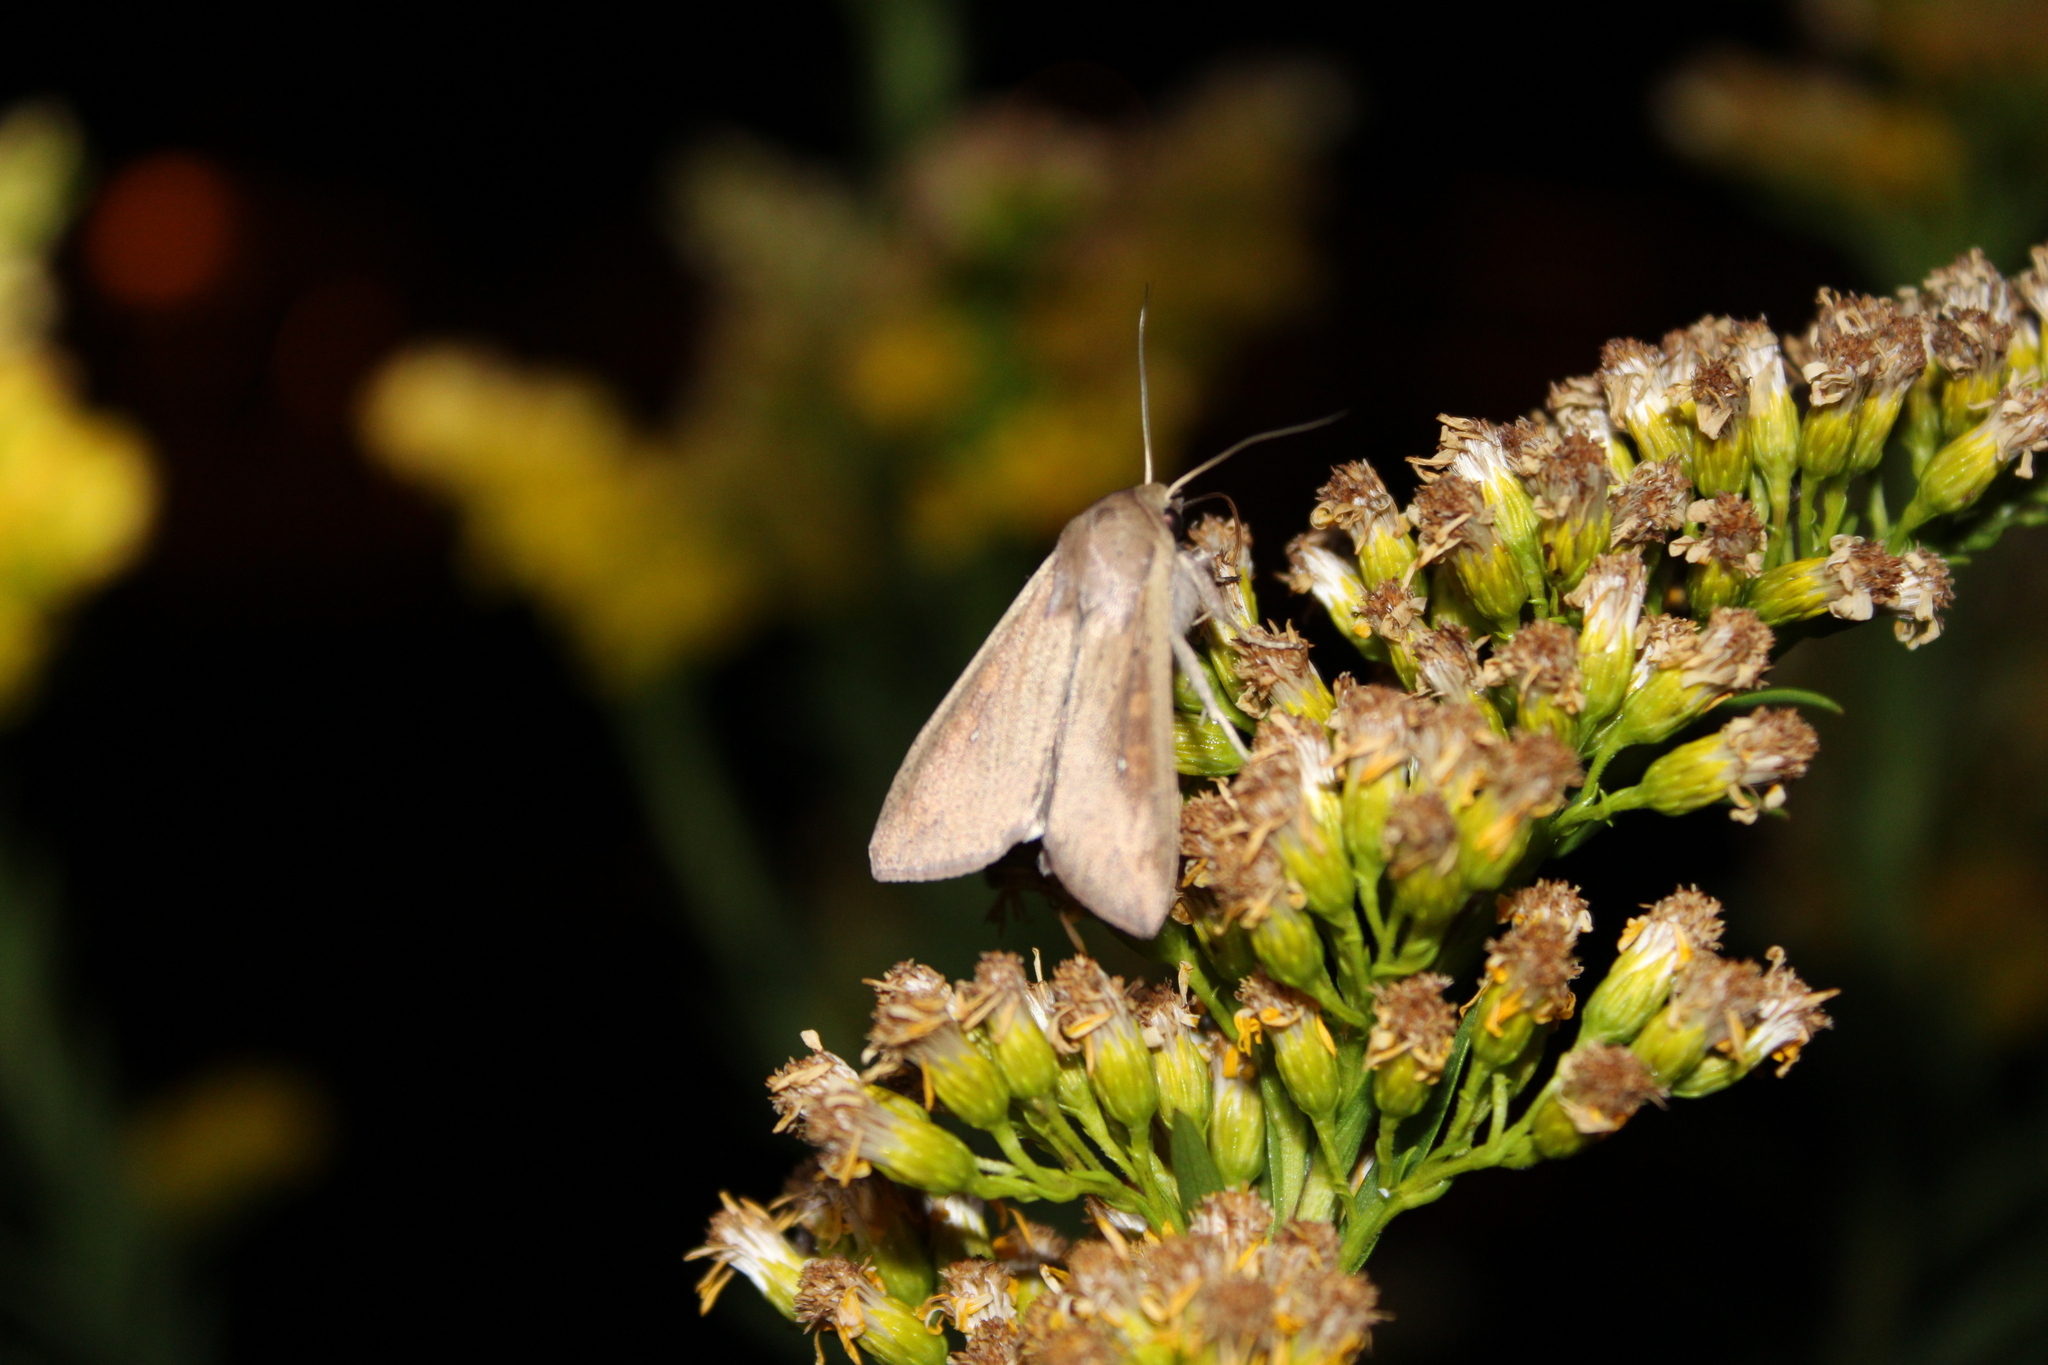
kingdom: Animalia
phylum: Arthropoda
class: Insecta
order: Lepidoptera
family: Noctuidae
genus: Mythimna
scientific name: Mythimna unipuncta
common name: White-speck
